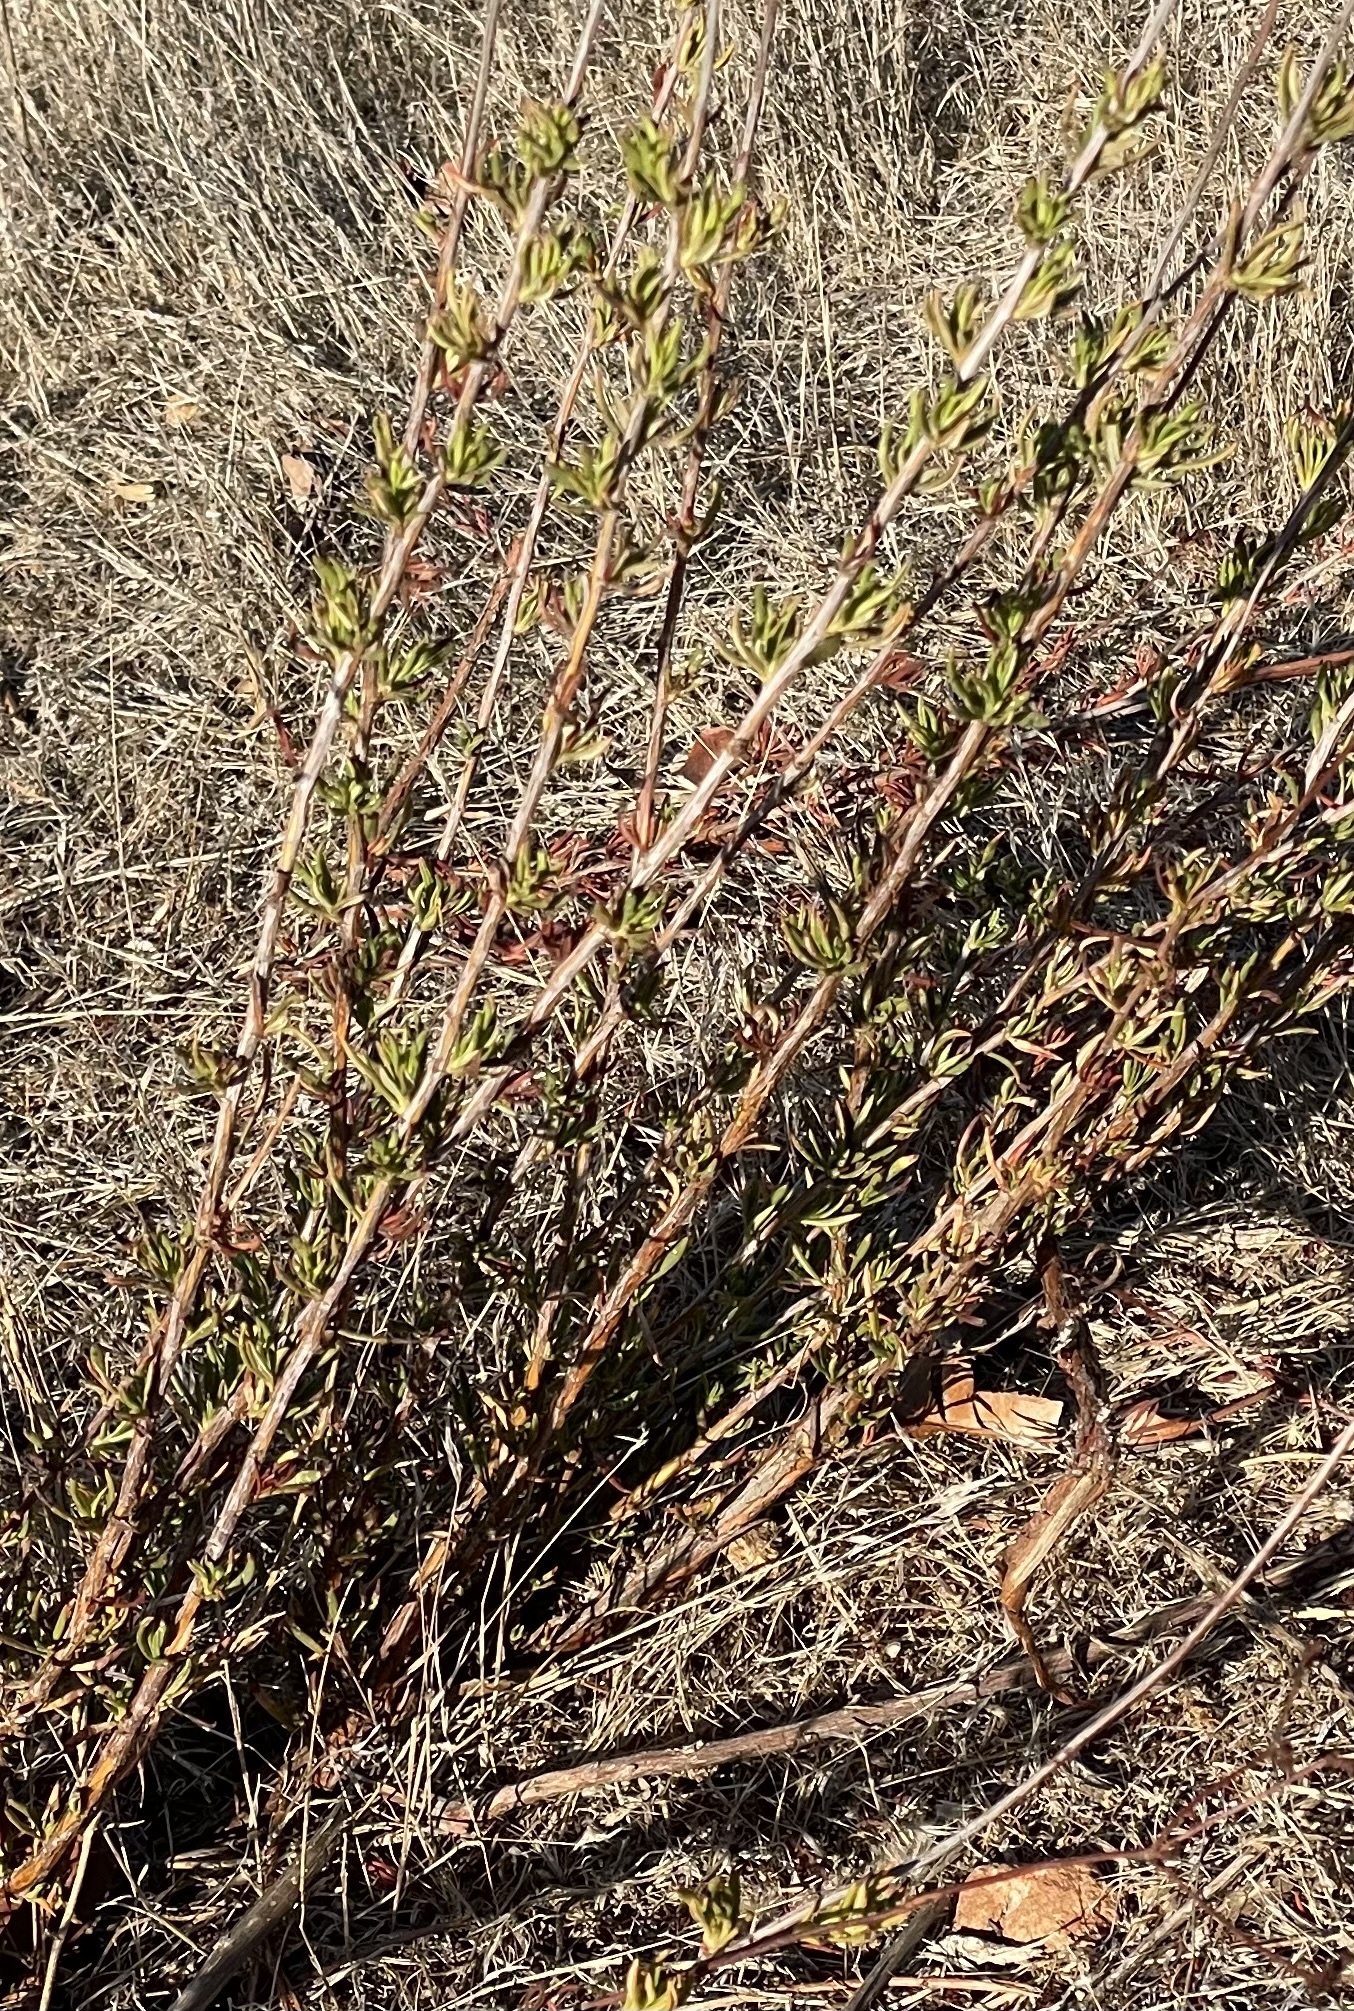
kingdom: Plantae
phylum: Tracheophyta
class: Magnoliopsida
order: Caryophyllales
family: Polygonaceae
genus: Eriogonum
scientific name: Eriogonum fasciculatum
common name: California wild buckwheat
